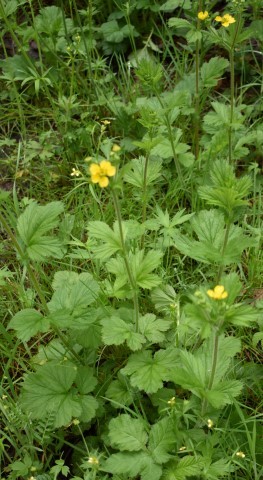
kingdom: Plantae
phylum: Tracheophyta
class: Magnoliopsida
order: Rosales
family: Rosaceae
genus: Geum
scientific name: Geum macrophyllum
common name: Large-leaved avens
